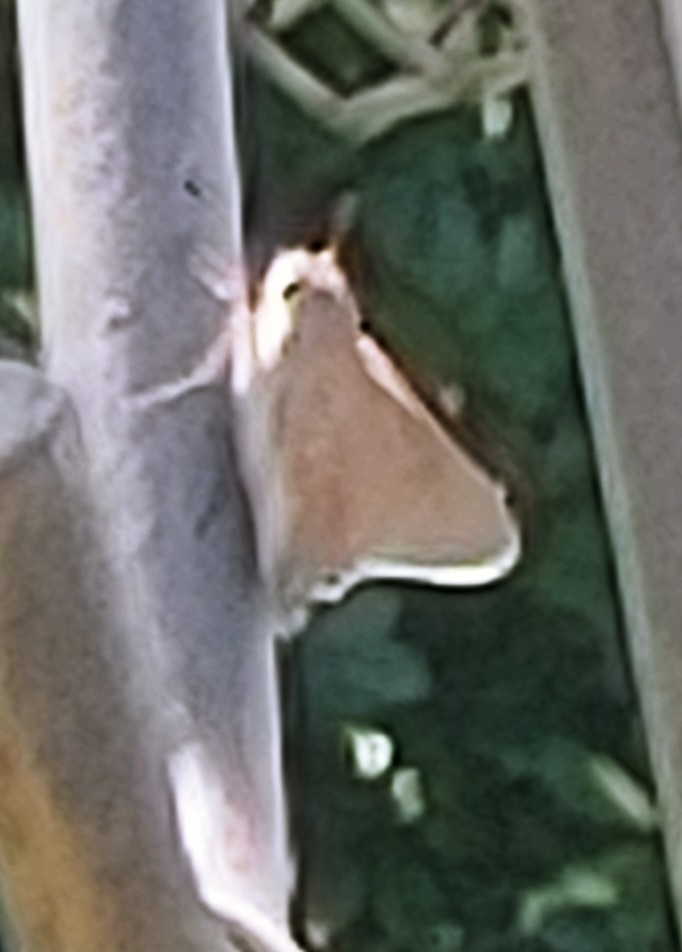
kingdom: Animalia
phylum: Arthropoda
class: Insecta
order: Lepidoptera
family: Hesperiidae
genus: Asbolis
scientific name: Asbolis capucinus
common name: Monk skipper
